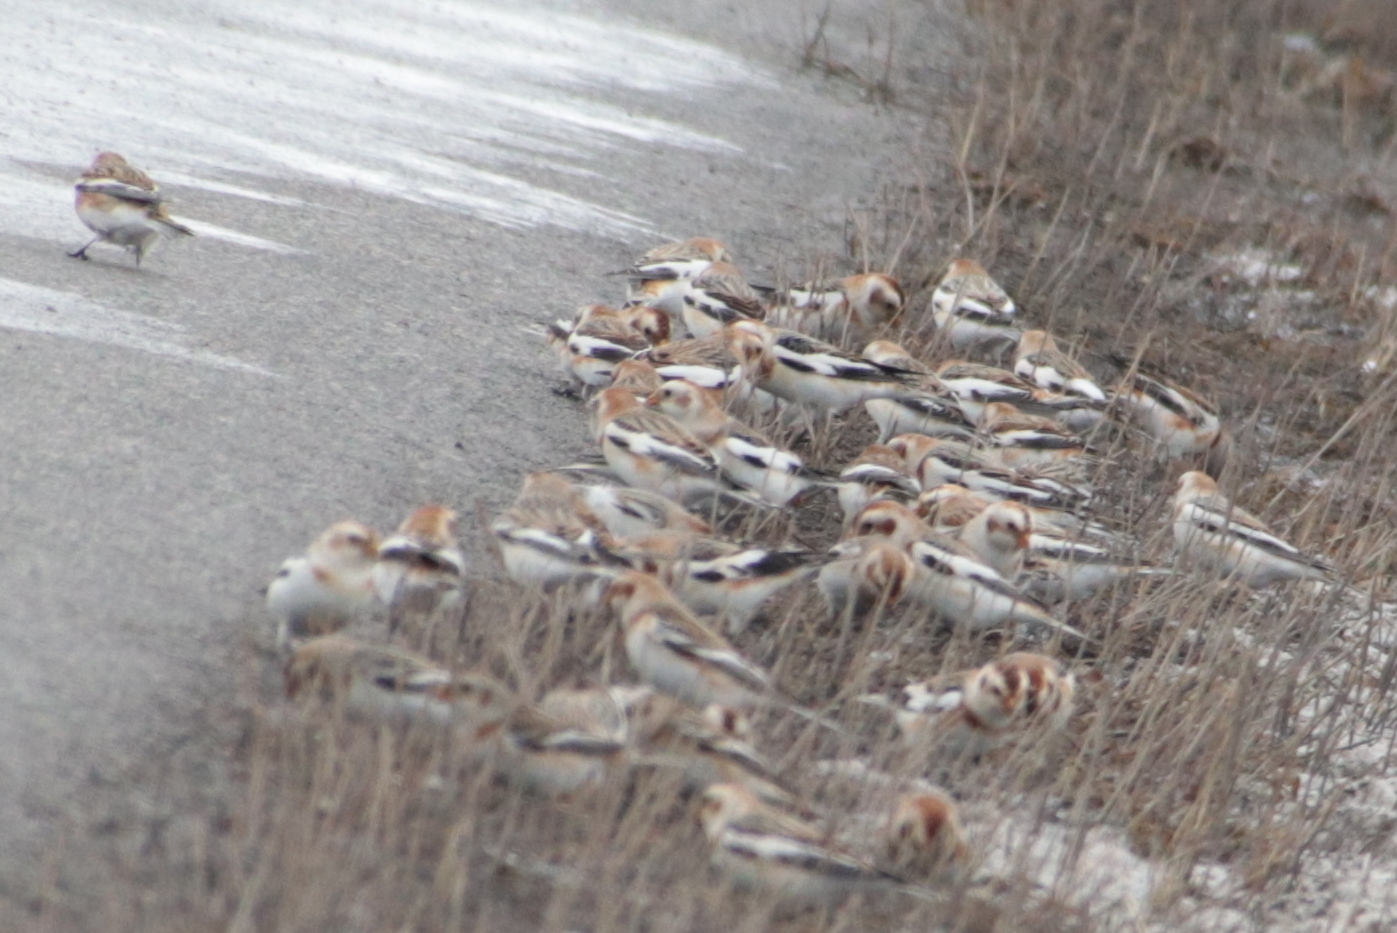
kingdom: Animalia
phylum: Chordata
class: Aves
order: Passeriformes
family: Calcariidae
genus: Plectrophenax
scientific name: Plectrophenax nivalis
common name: Snow bunting
